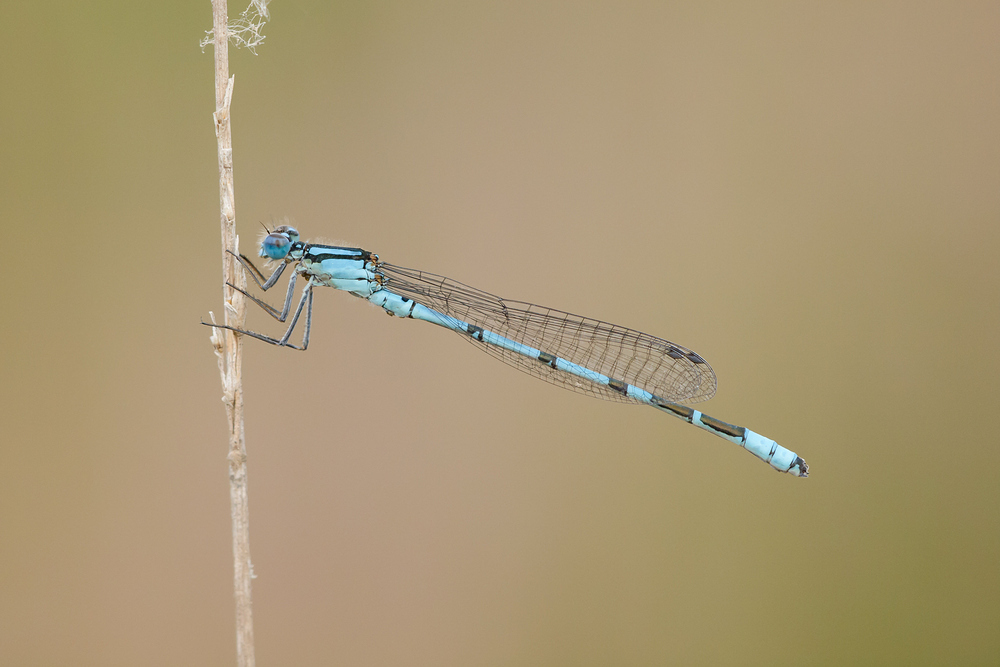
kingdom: Animalia
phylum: Arthropoda
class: Insecta
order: Odonata
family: Coenagrionidae
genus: Enallagma
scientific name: Enallagma cyathigerum
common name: Common blue damselfly
